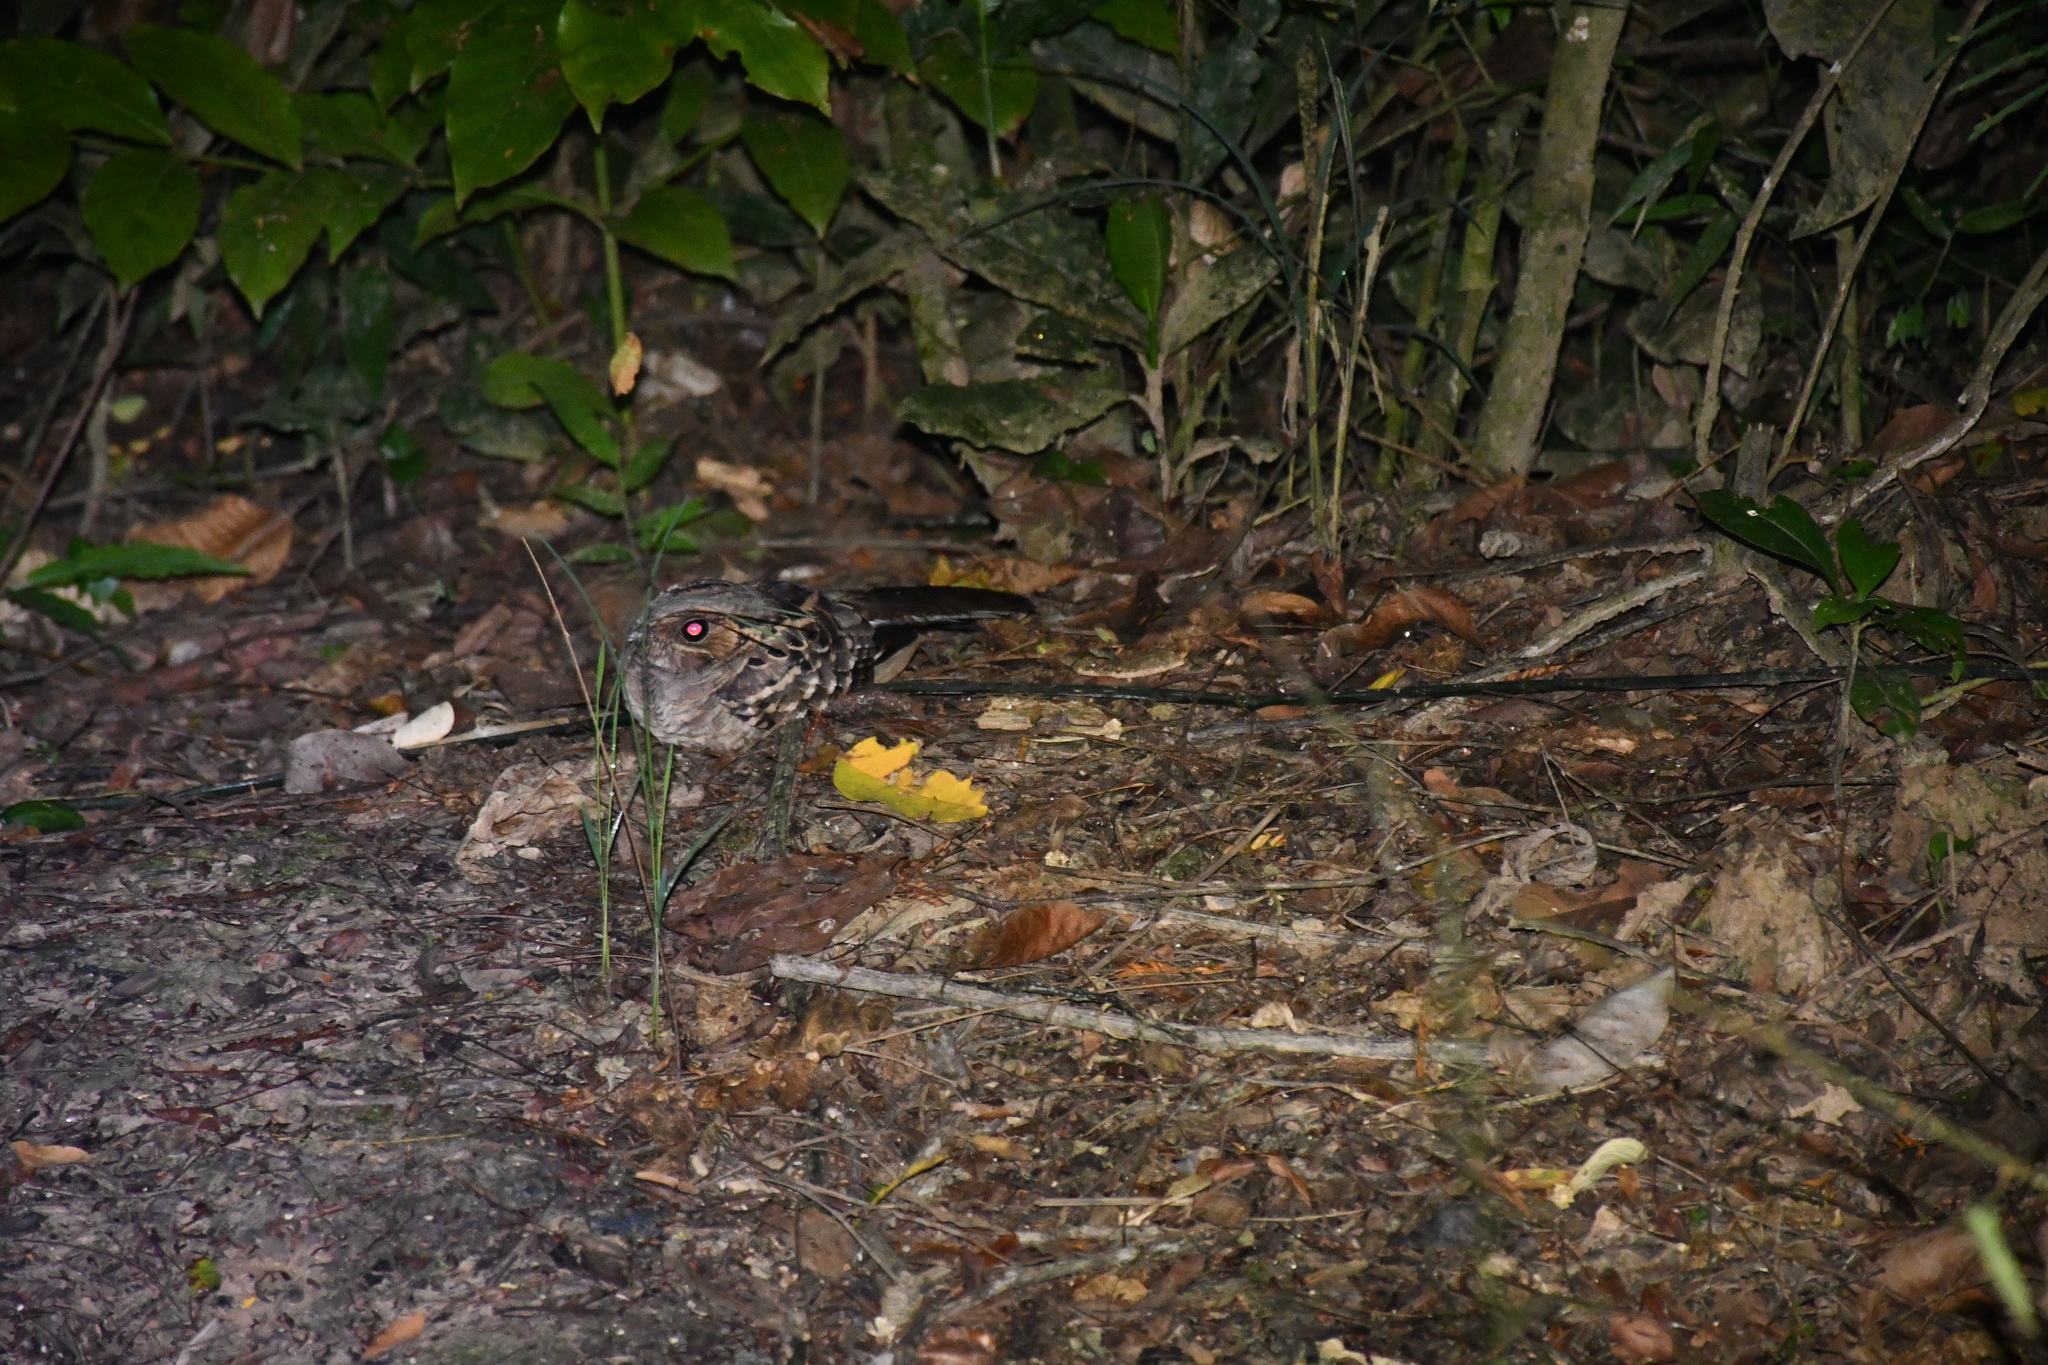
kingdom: Animalia
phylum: Chordata
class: Aves
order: Caprimulgiformes
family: Caprimulgidae
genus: Nyctidromus
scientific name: Nyctidromus albicollis
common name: Pauraque
